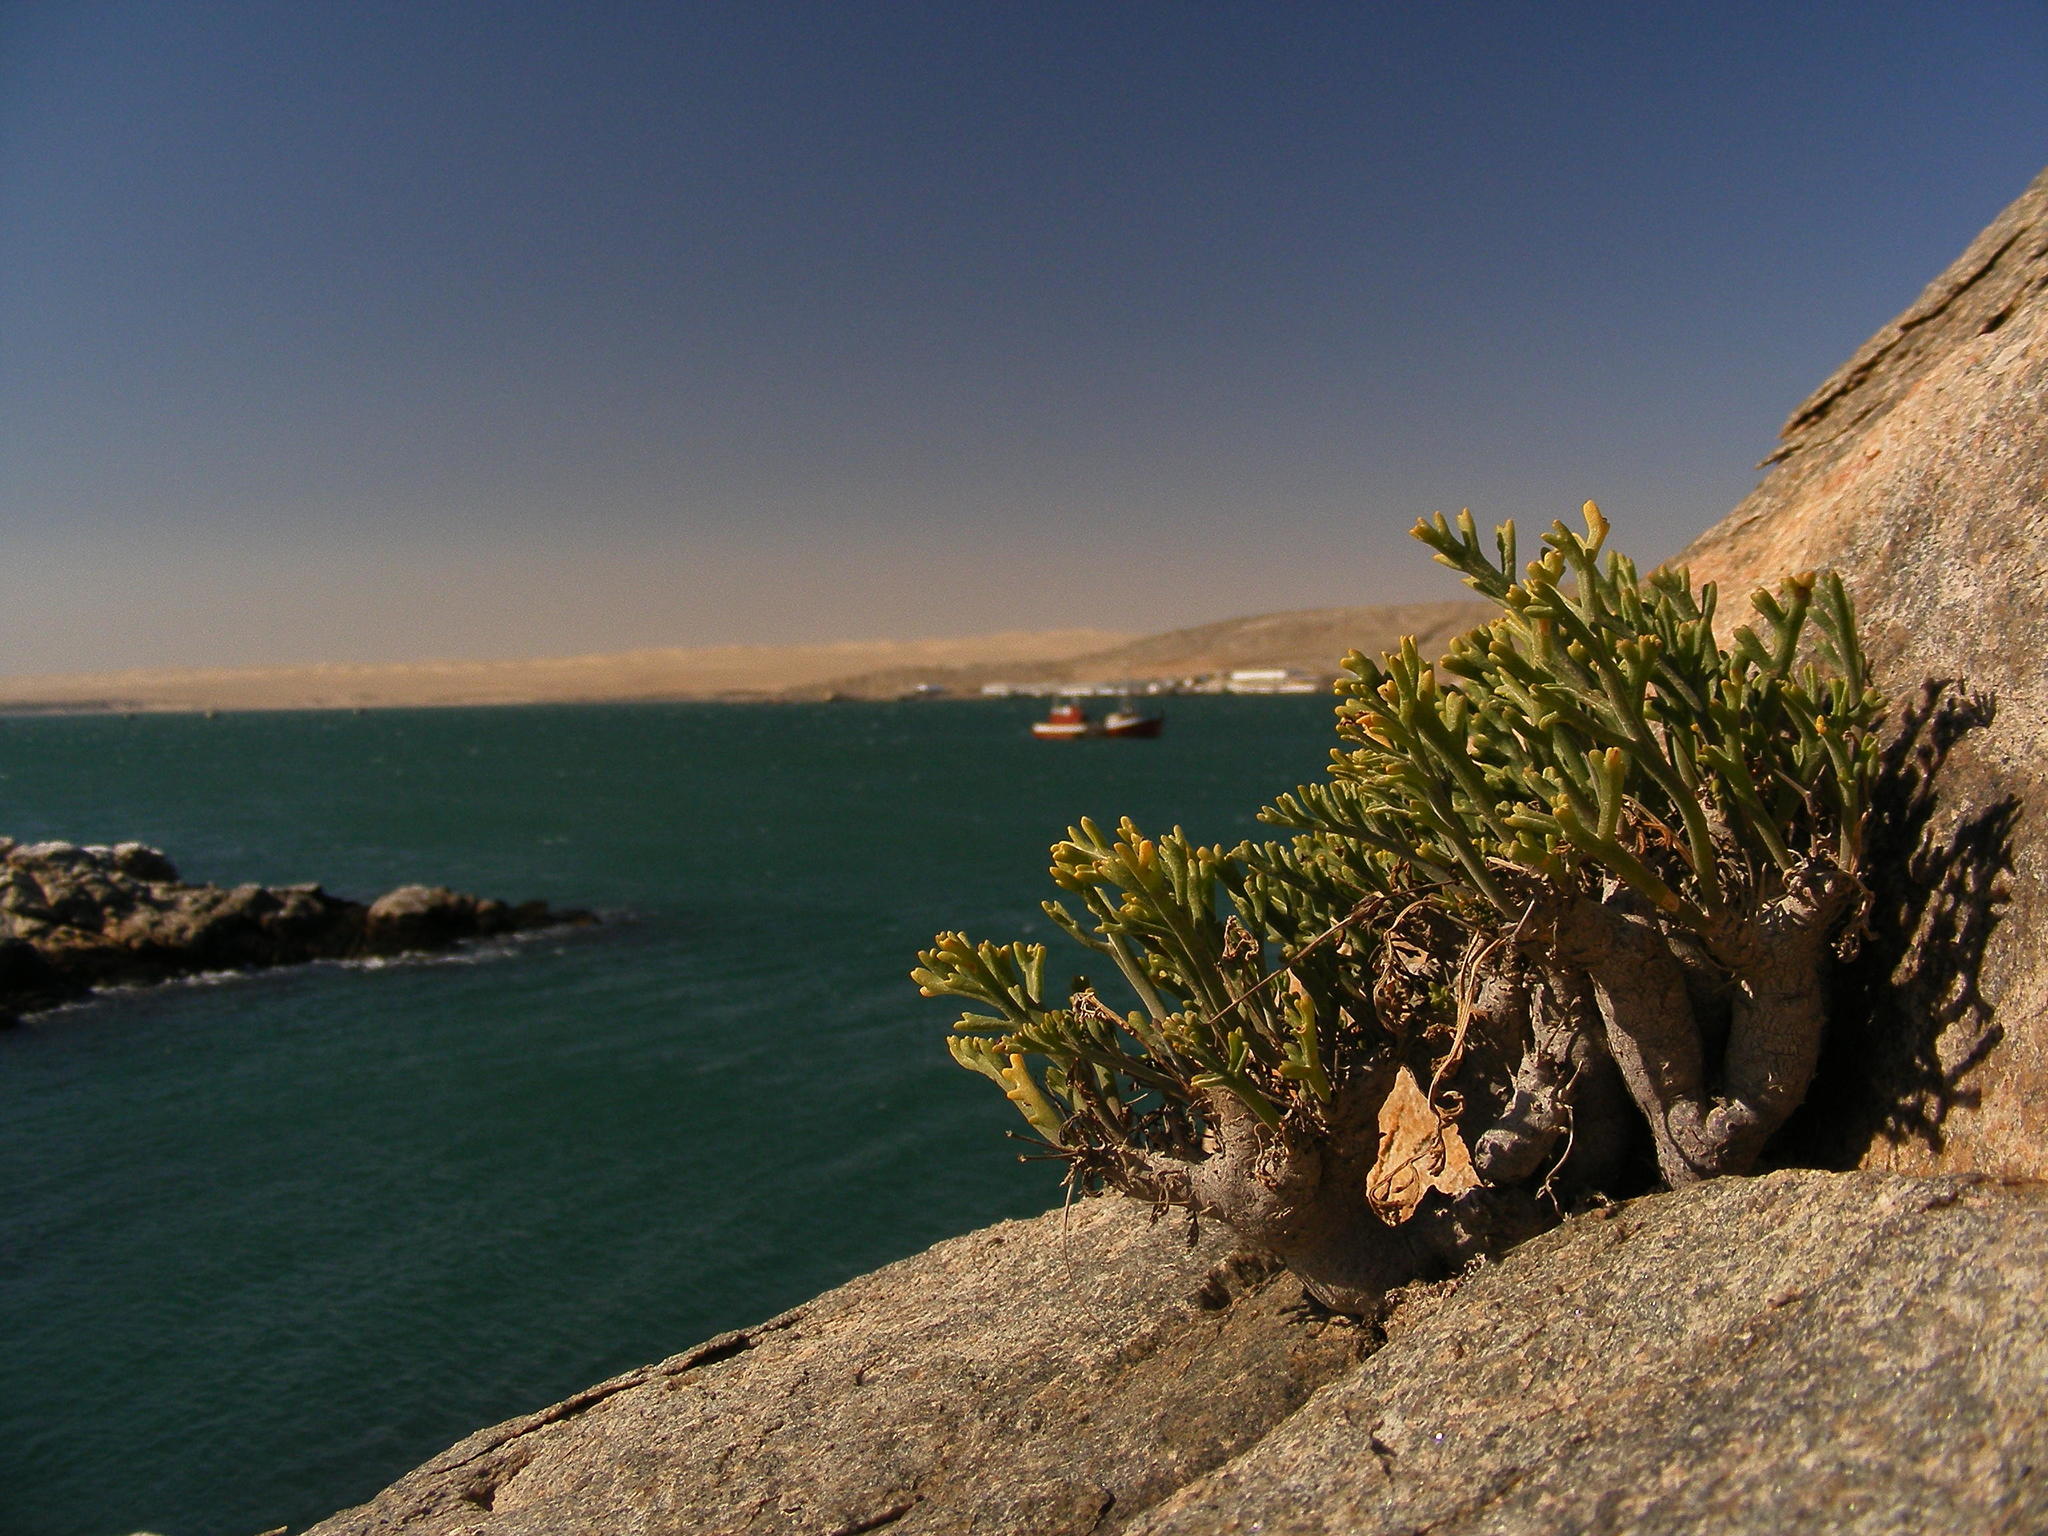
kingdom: Plantae
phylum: Tracheophyta
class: Magnoliopsida
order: Geraniales
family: Geraniaceae
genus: Pelargonium
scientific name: Pelargonium ceratophyllum
